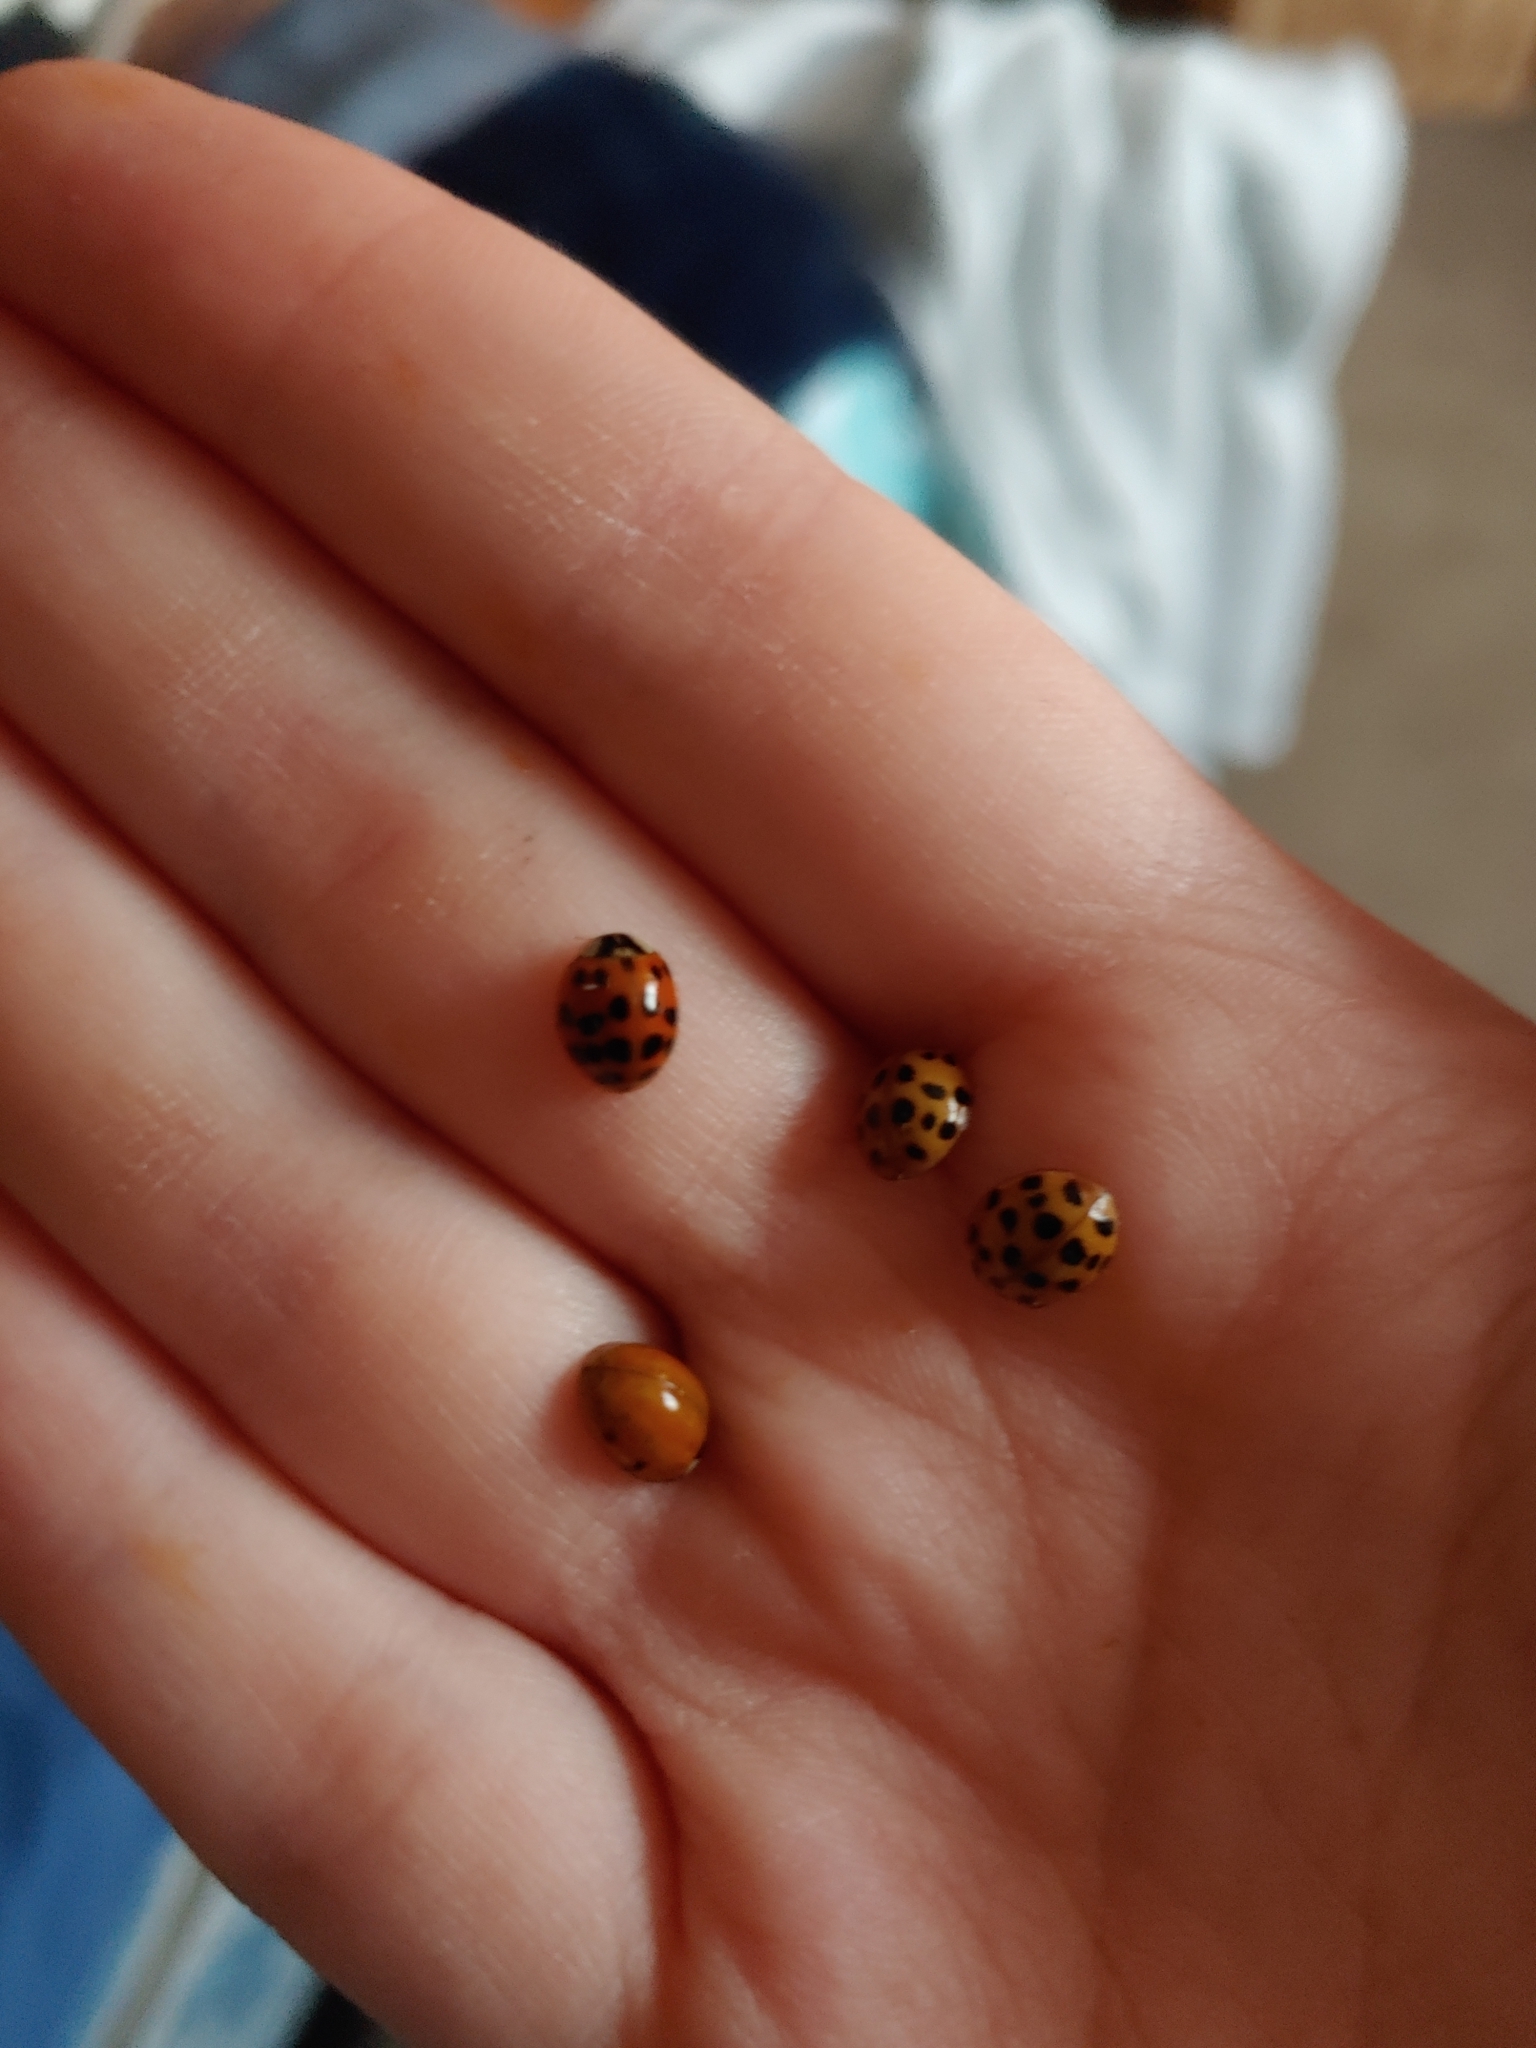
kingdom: Animalia
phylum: Arthropoda
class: Insecta
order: Coleoptera
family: Coccinellidae
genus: Harmonia
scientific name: Harmonia axyridis
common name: Harlequin ladybird
